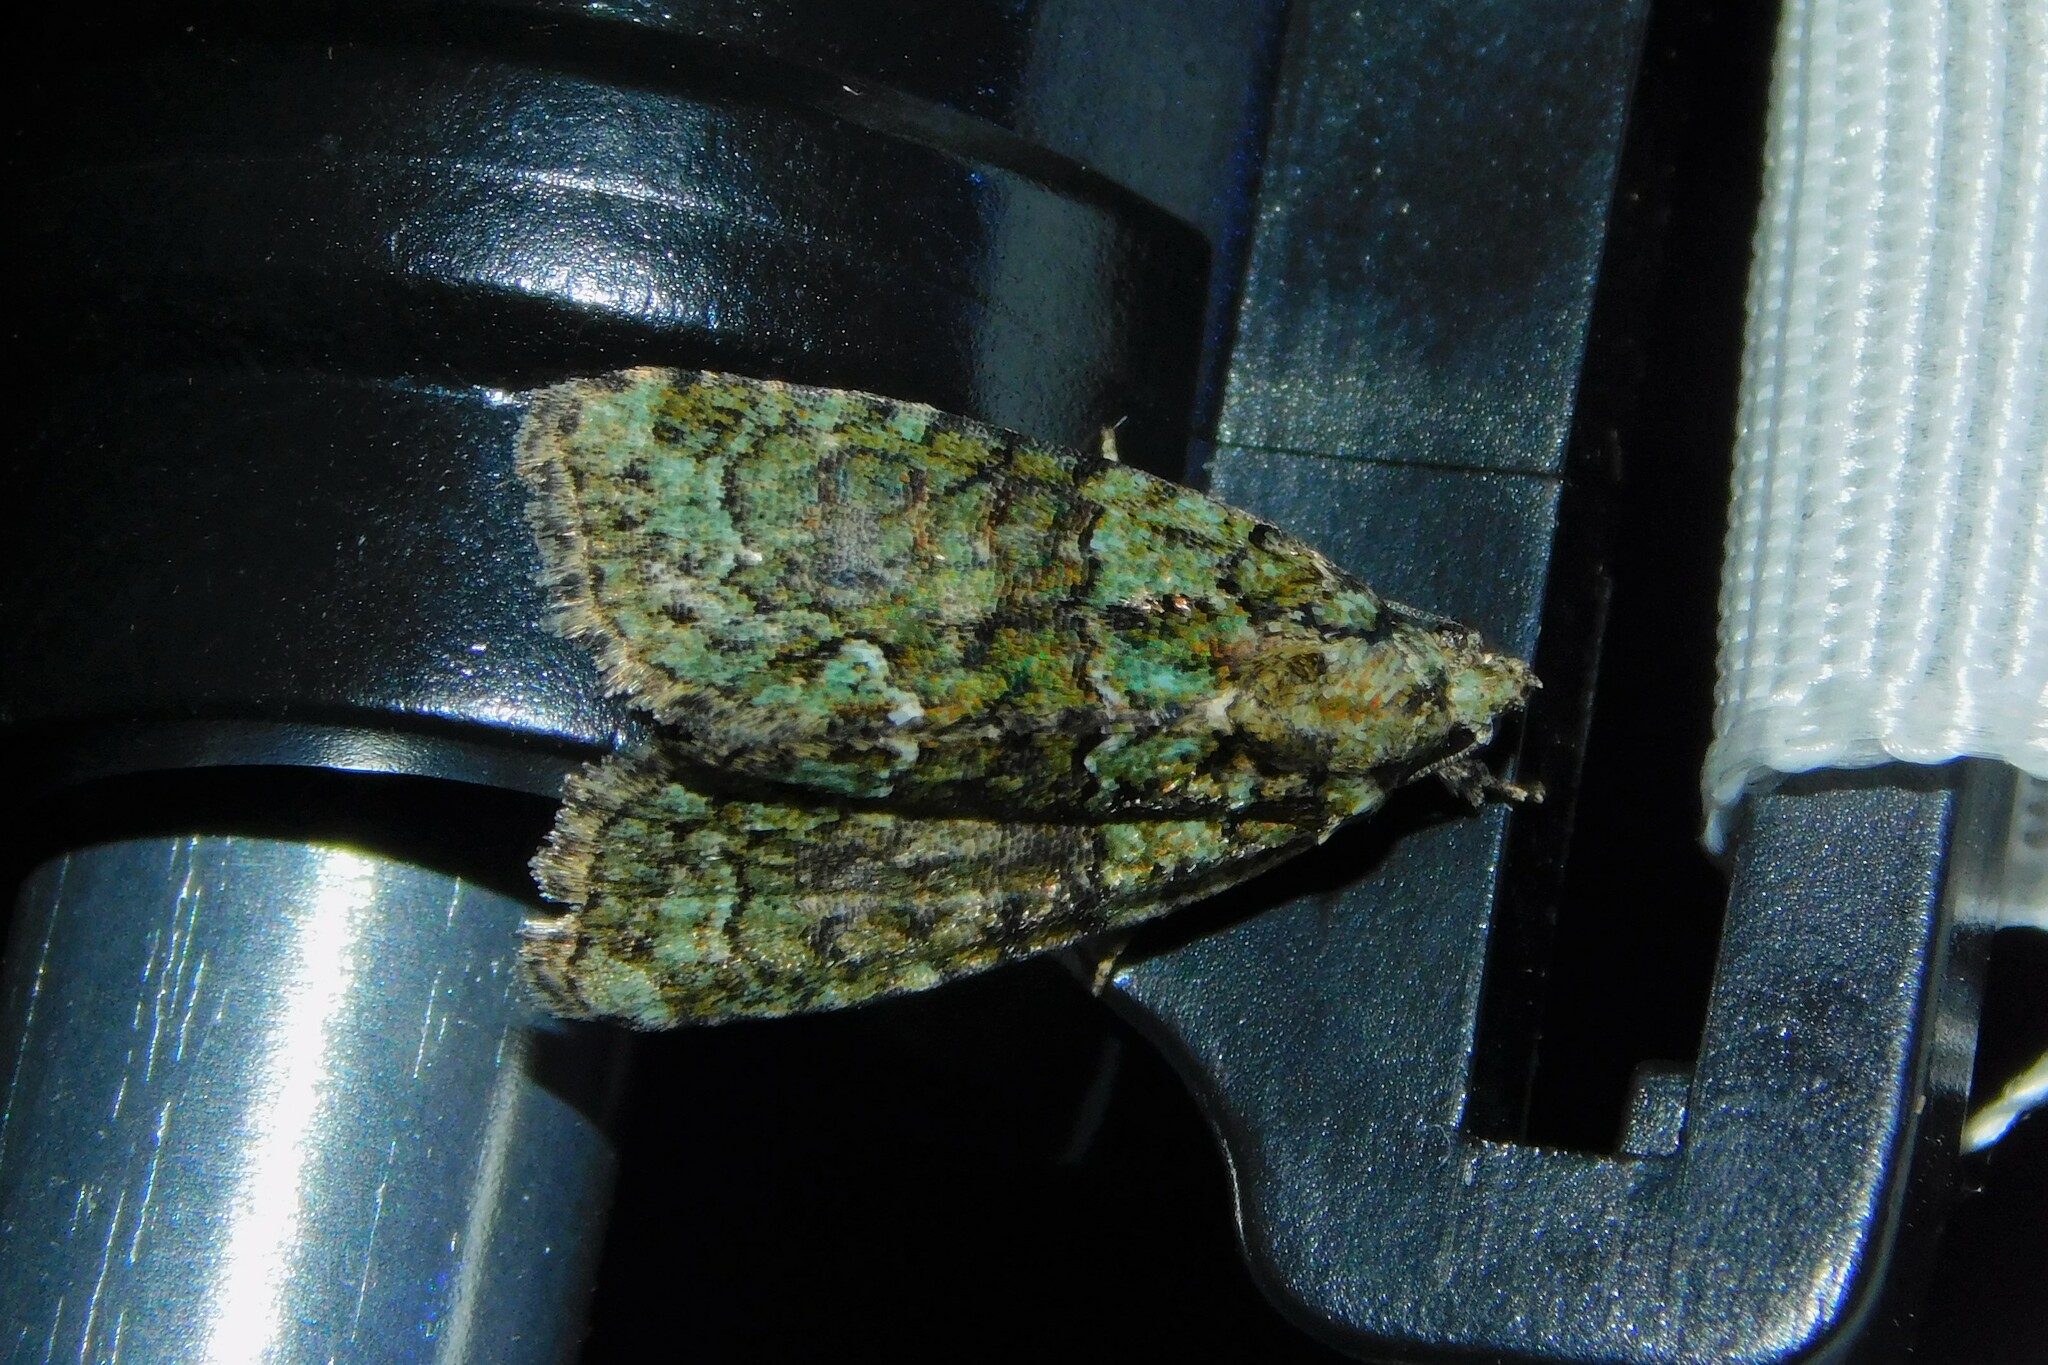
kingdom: Animalia
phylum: Arthropoda
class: Insecta
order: Lepidoptera
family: Noctuidae
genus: Cryphia
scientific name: Cryphia algae
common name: Tree-lichen beauty
